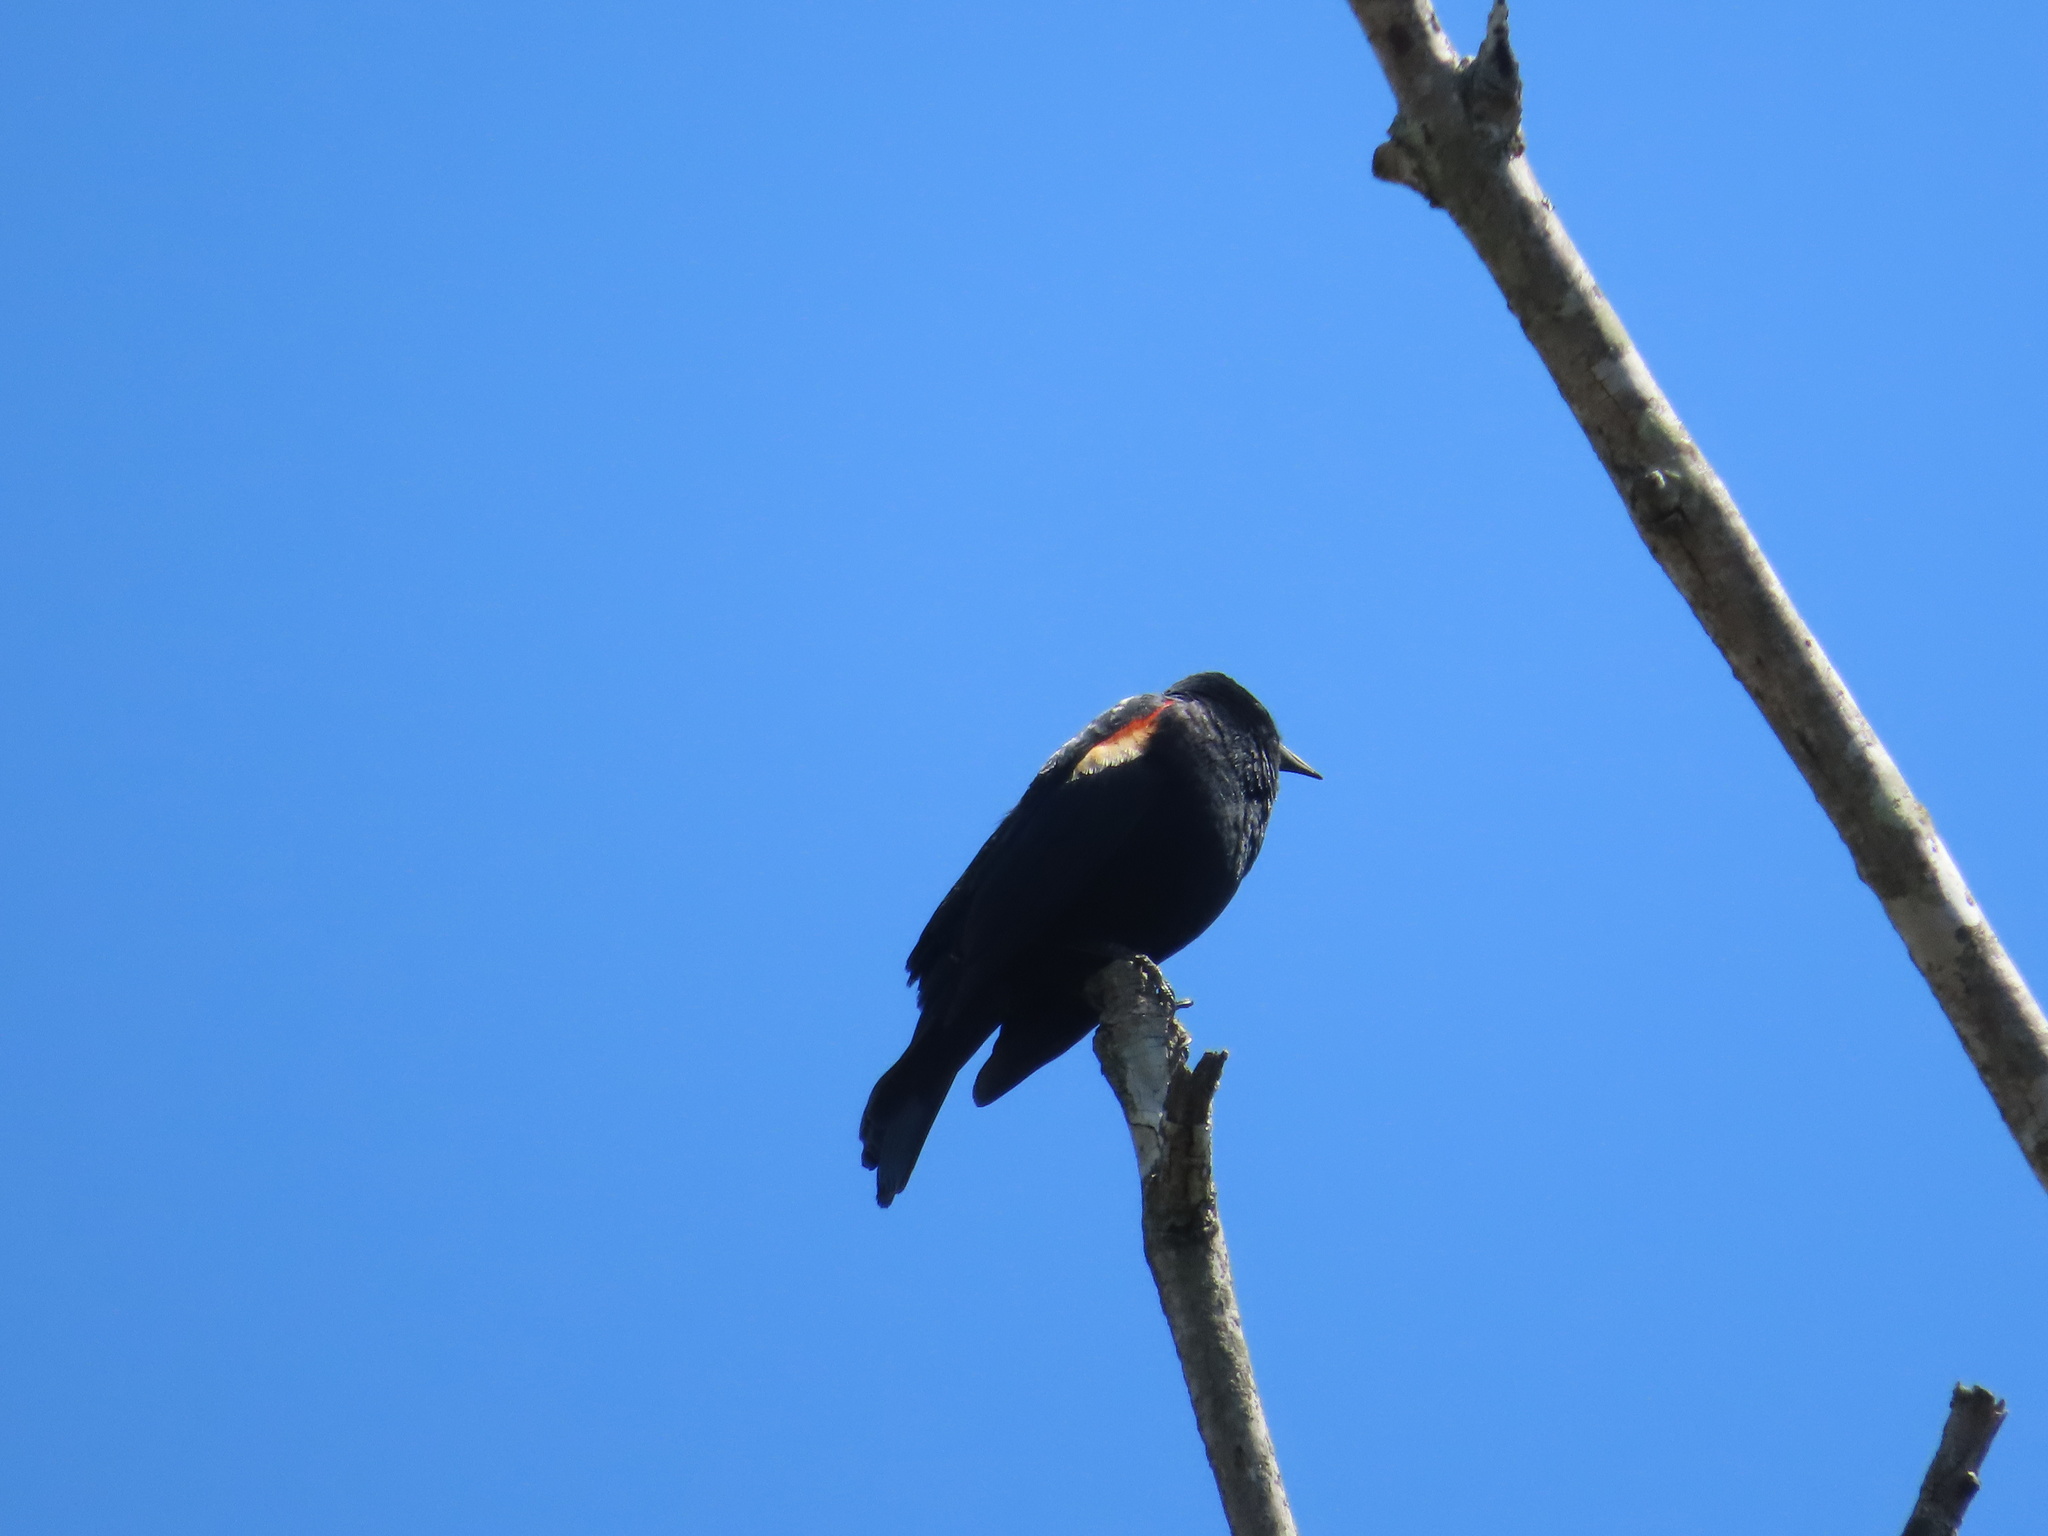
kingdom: Animalia
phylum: Chordata
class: Aves
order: Passeriformes
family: Icteridae
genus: Agelaius
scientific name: Agelaius phoeniceus
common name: Red-winged blackbird
